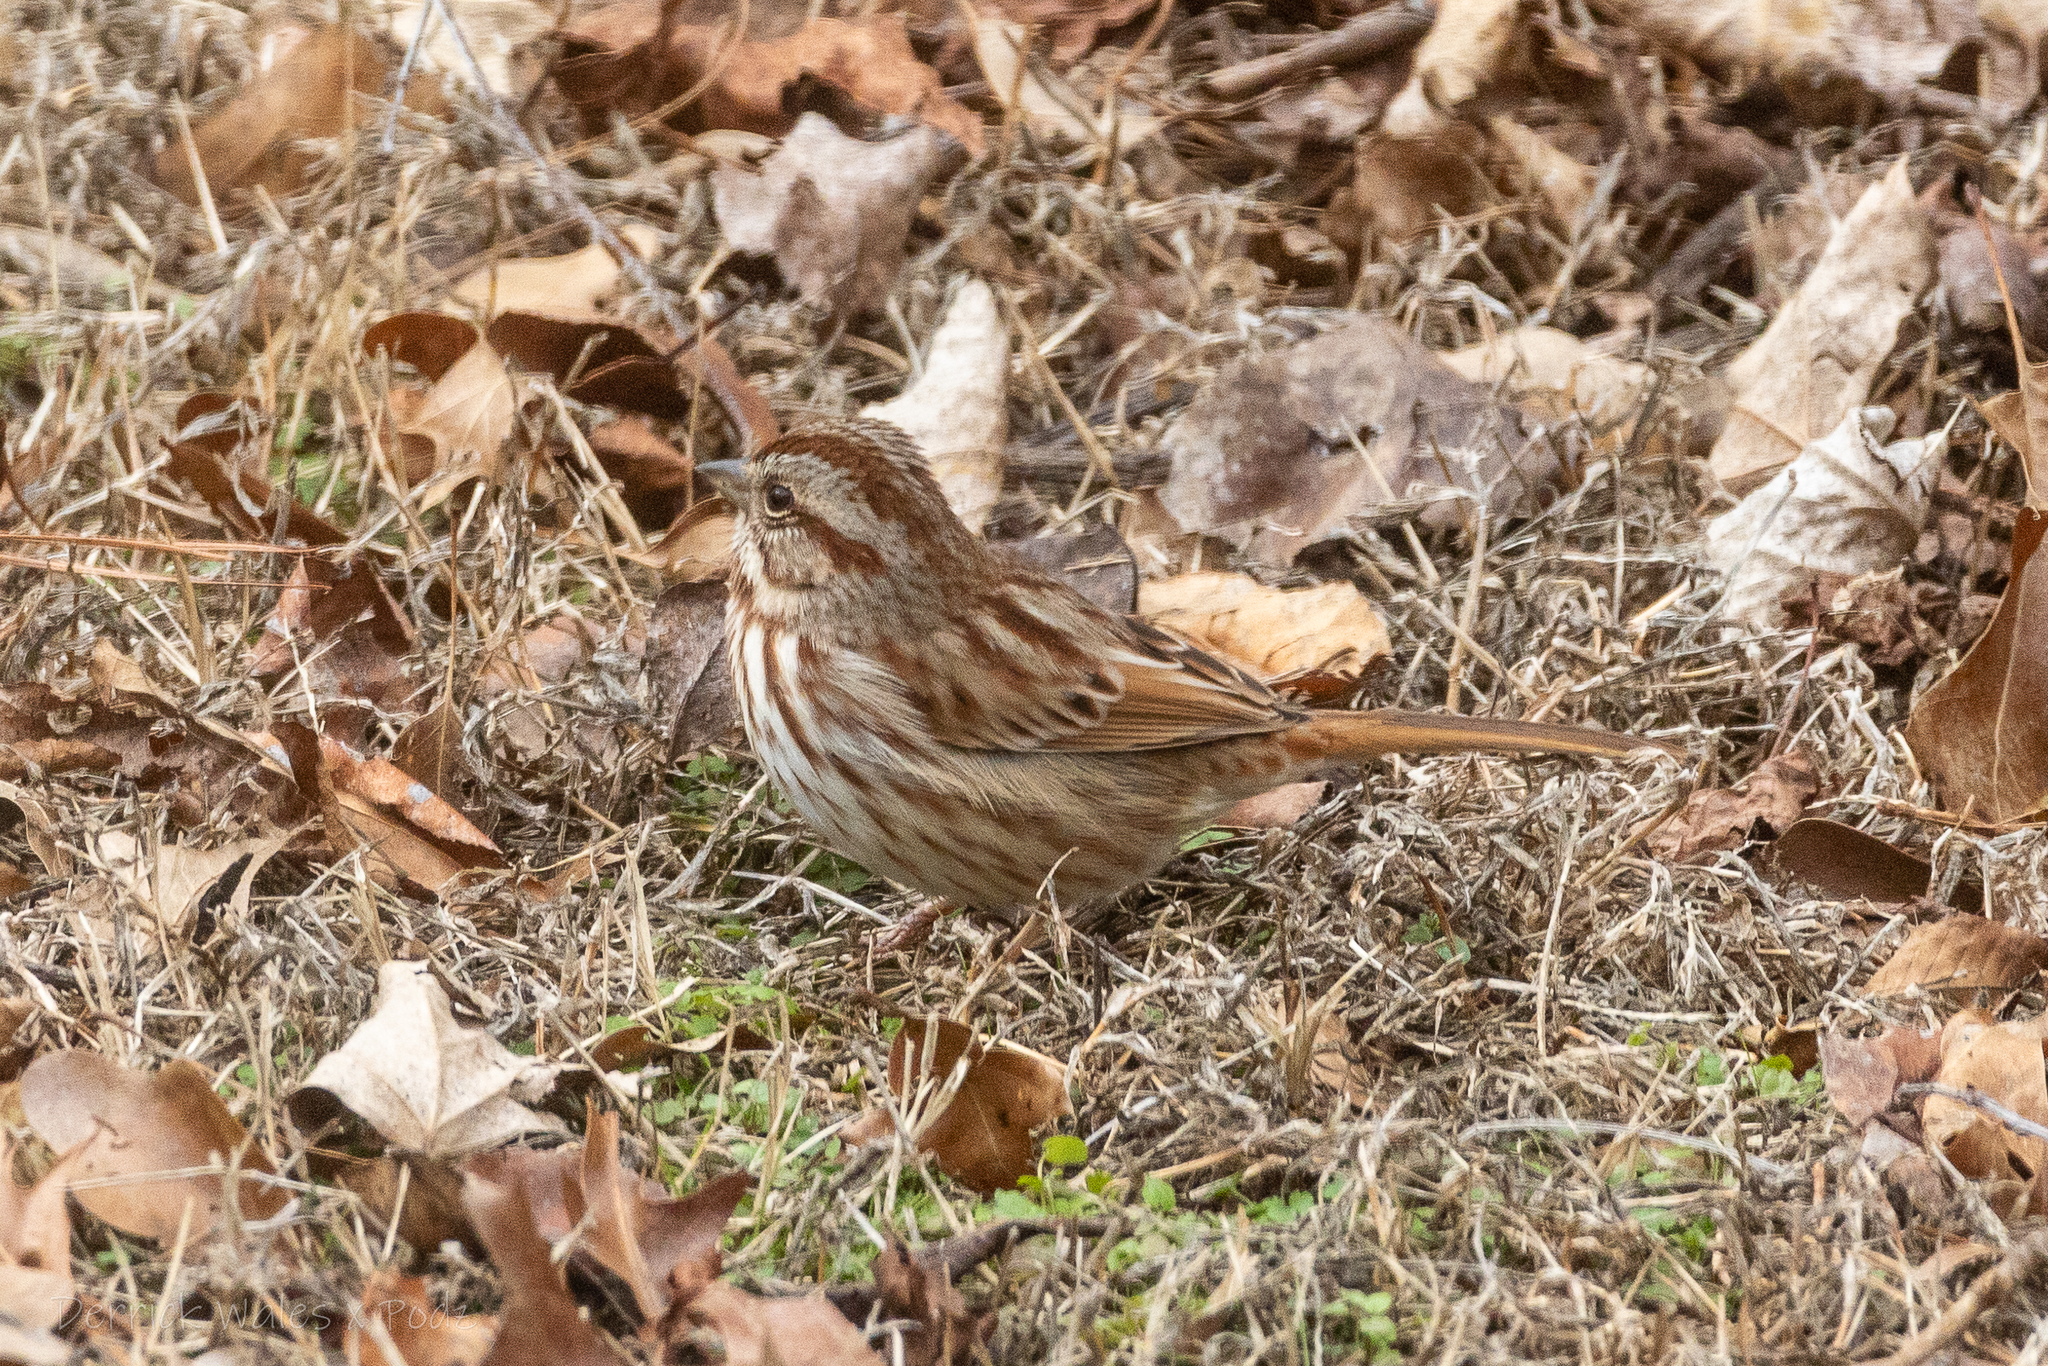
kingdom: Animalia
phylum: Chordata
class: Aves
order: Passeriformes
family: Passerellidae
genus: Melospiza
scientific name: Melospiza melodia
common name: Song sparrow
